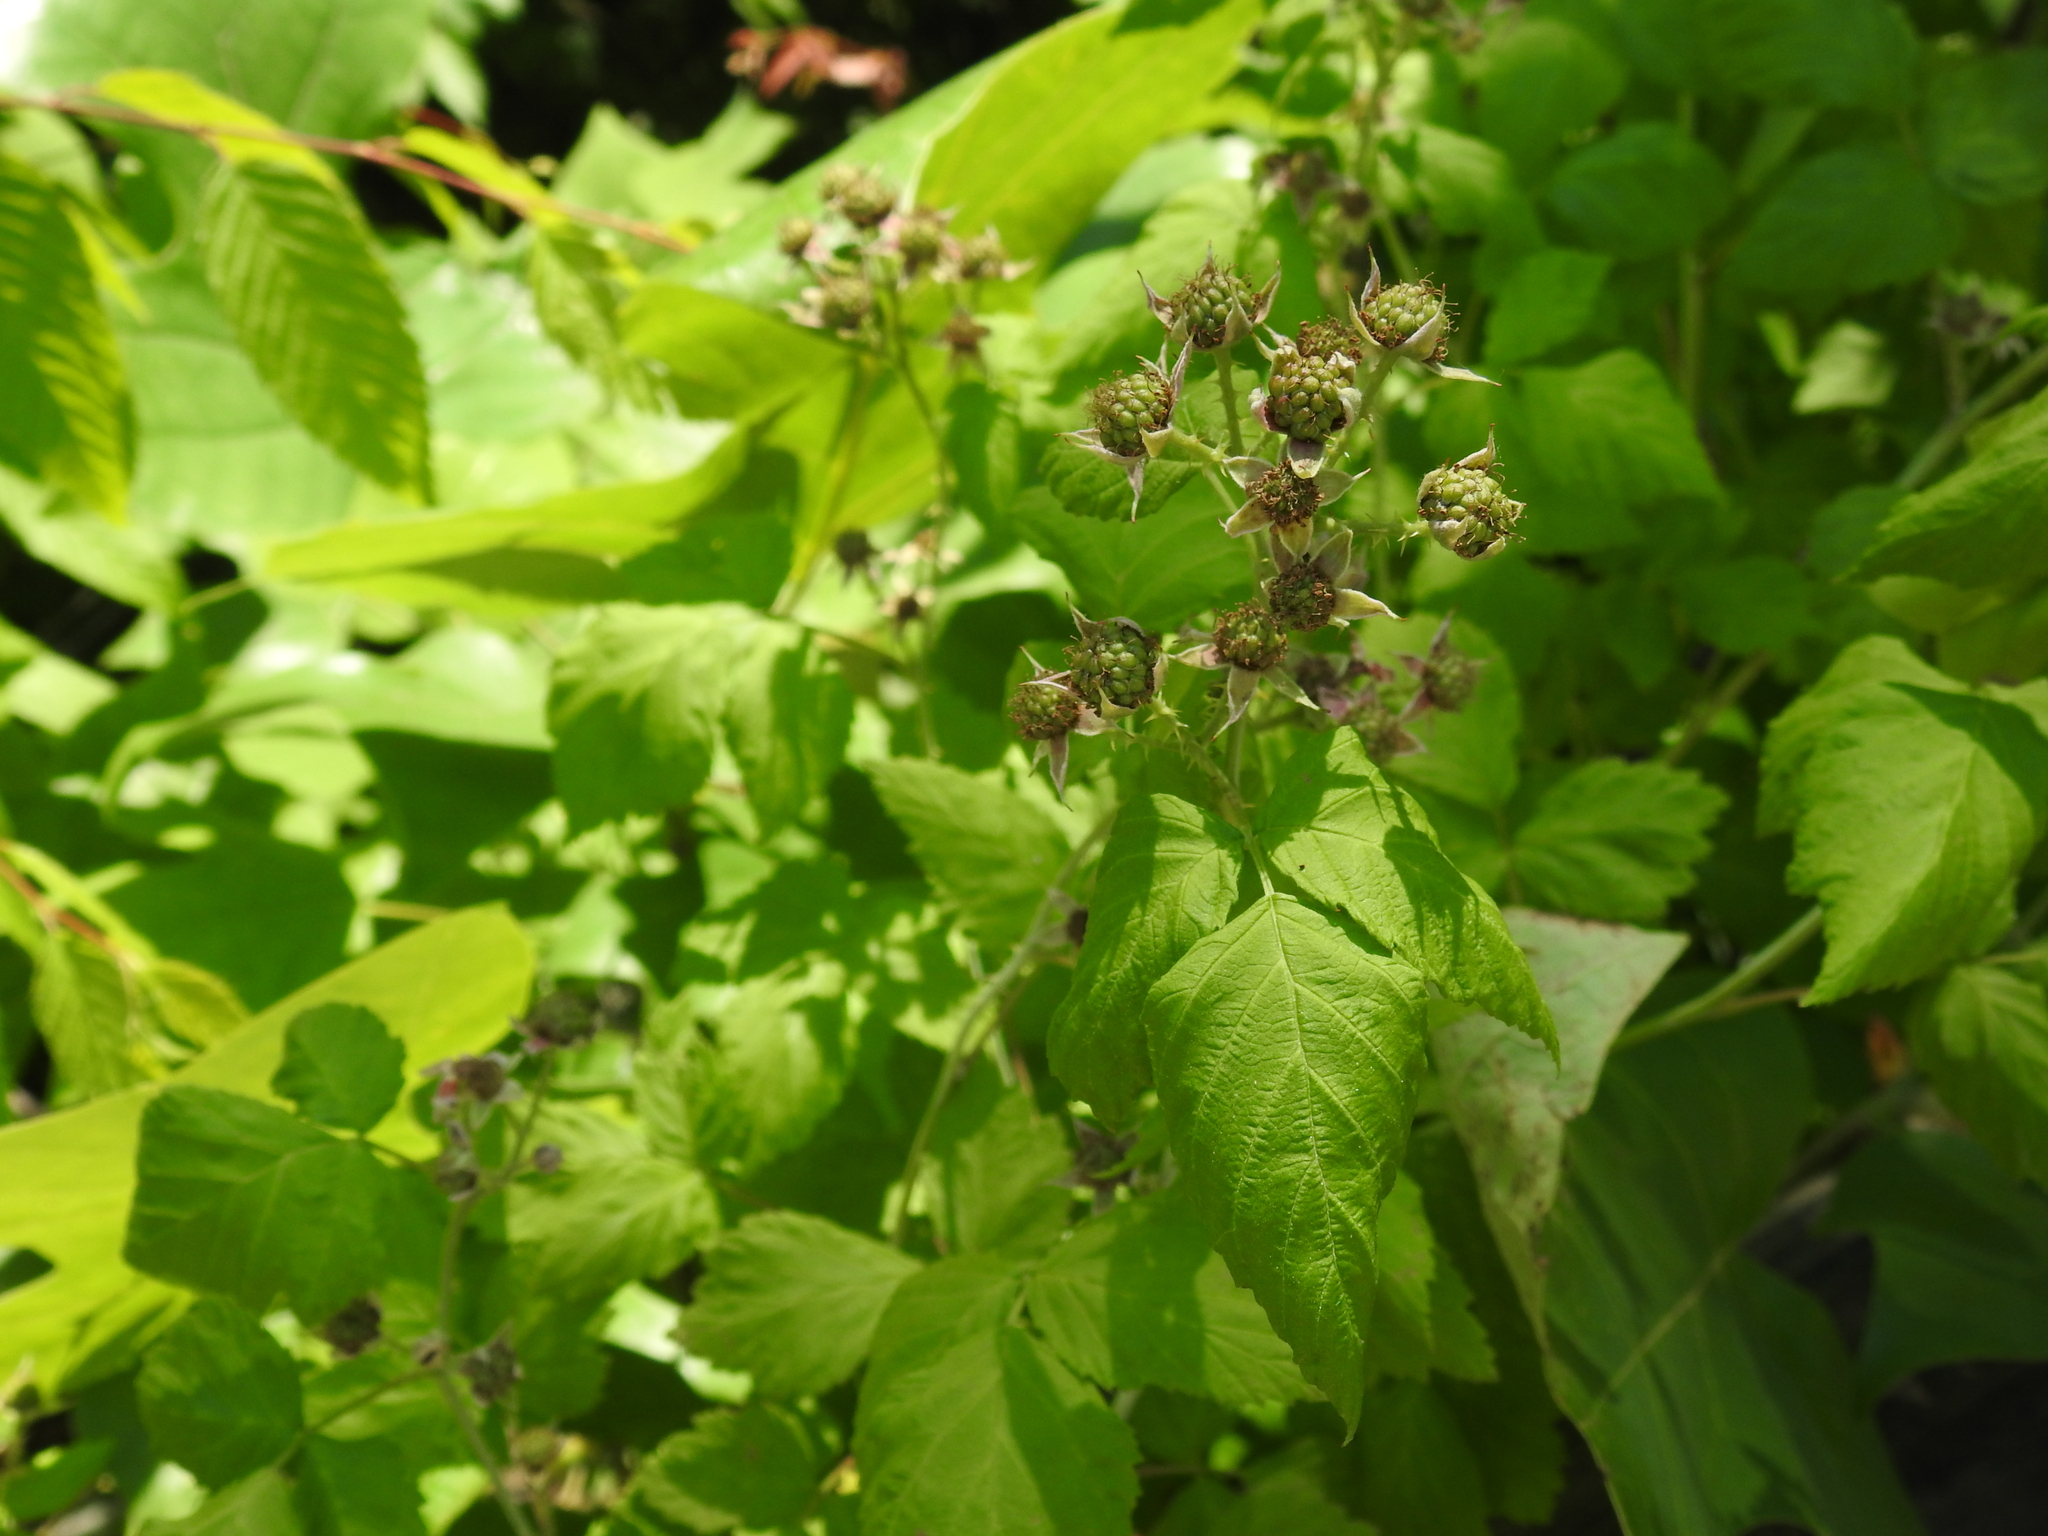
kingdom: Plantae
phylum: Tracheophyta
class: Magnoliopsida
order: Rosales
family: Rosaceae
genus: Rubus
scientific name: Rubus occidentalis
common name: Black raspberry
